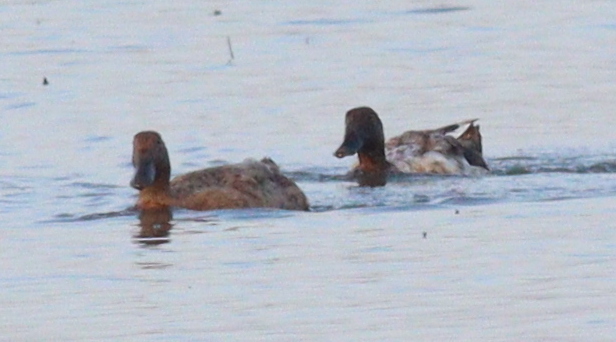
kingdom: Animalia
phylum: Chordata
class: Aves
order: Anseriformes
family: Anatidae
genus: Anas
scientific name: Anas platyrhynchos
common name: Mallard
